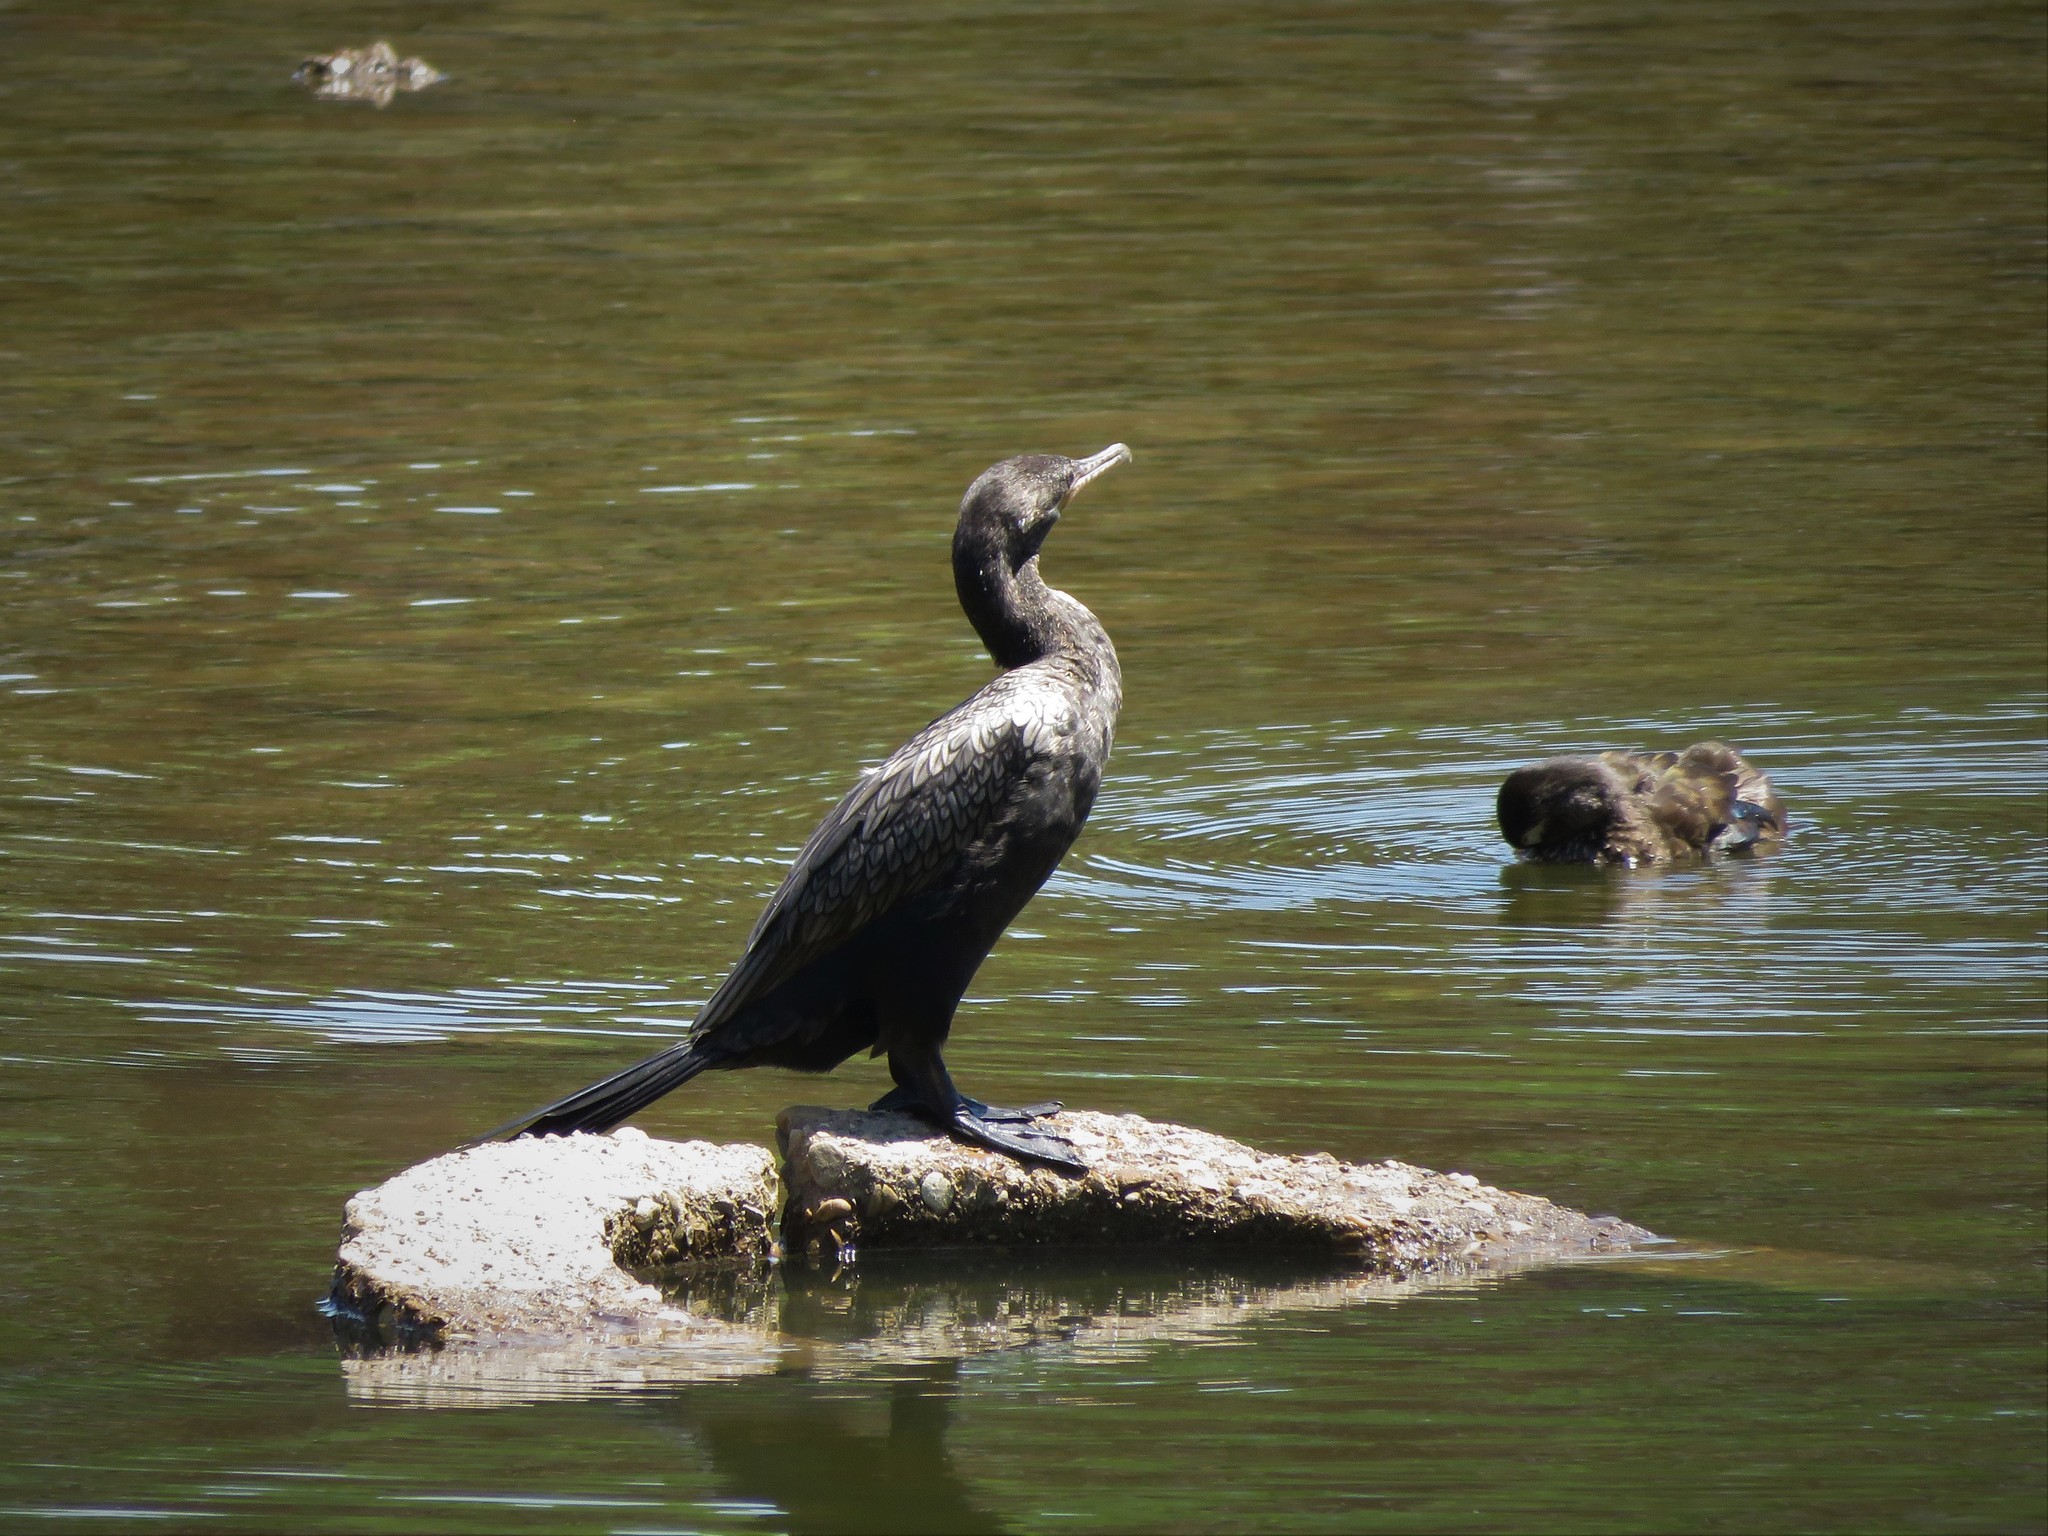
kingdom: Animalia
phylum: Chordata
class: Aves
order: Suliformes
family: Phalacrocoracidae
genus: Phalacrocorax
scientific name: Phalacrocorax brasilianus
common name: Neotropic cormorant
